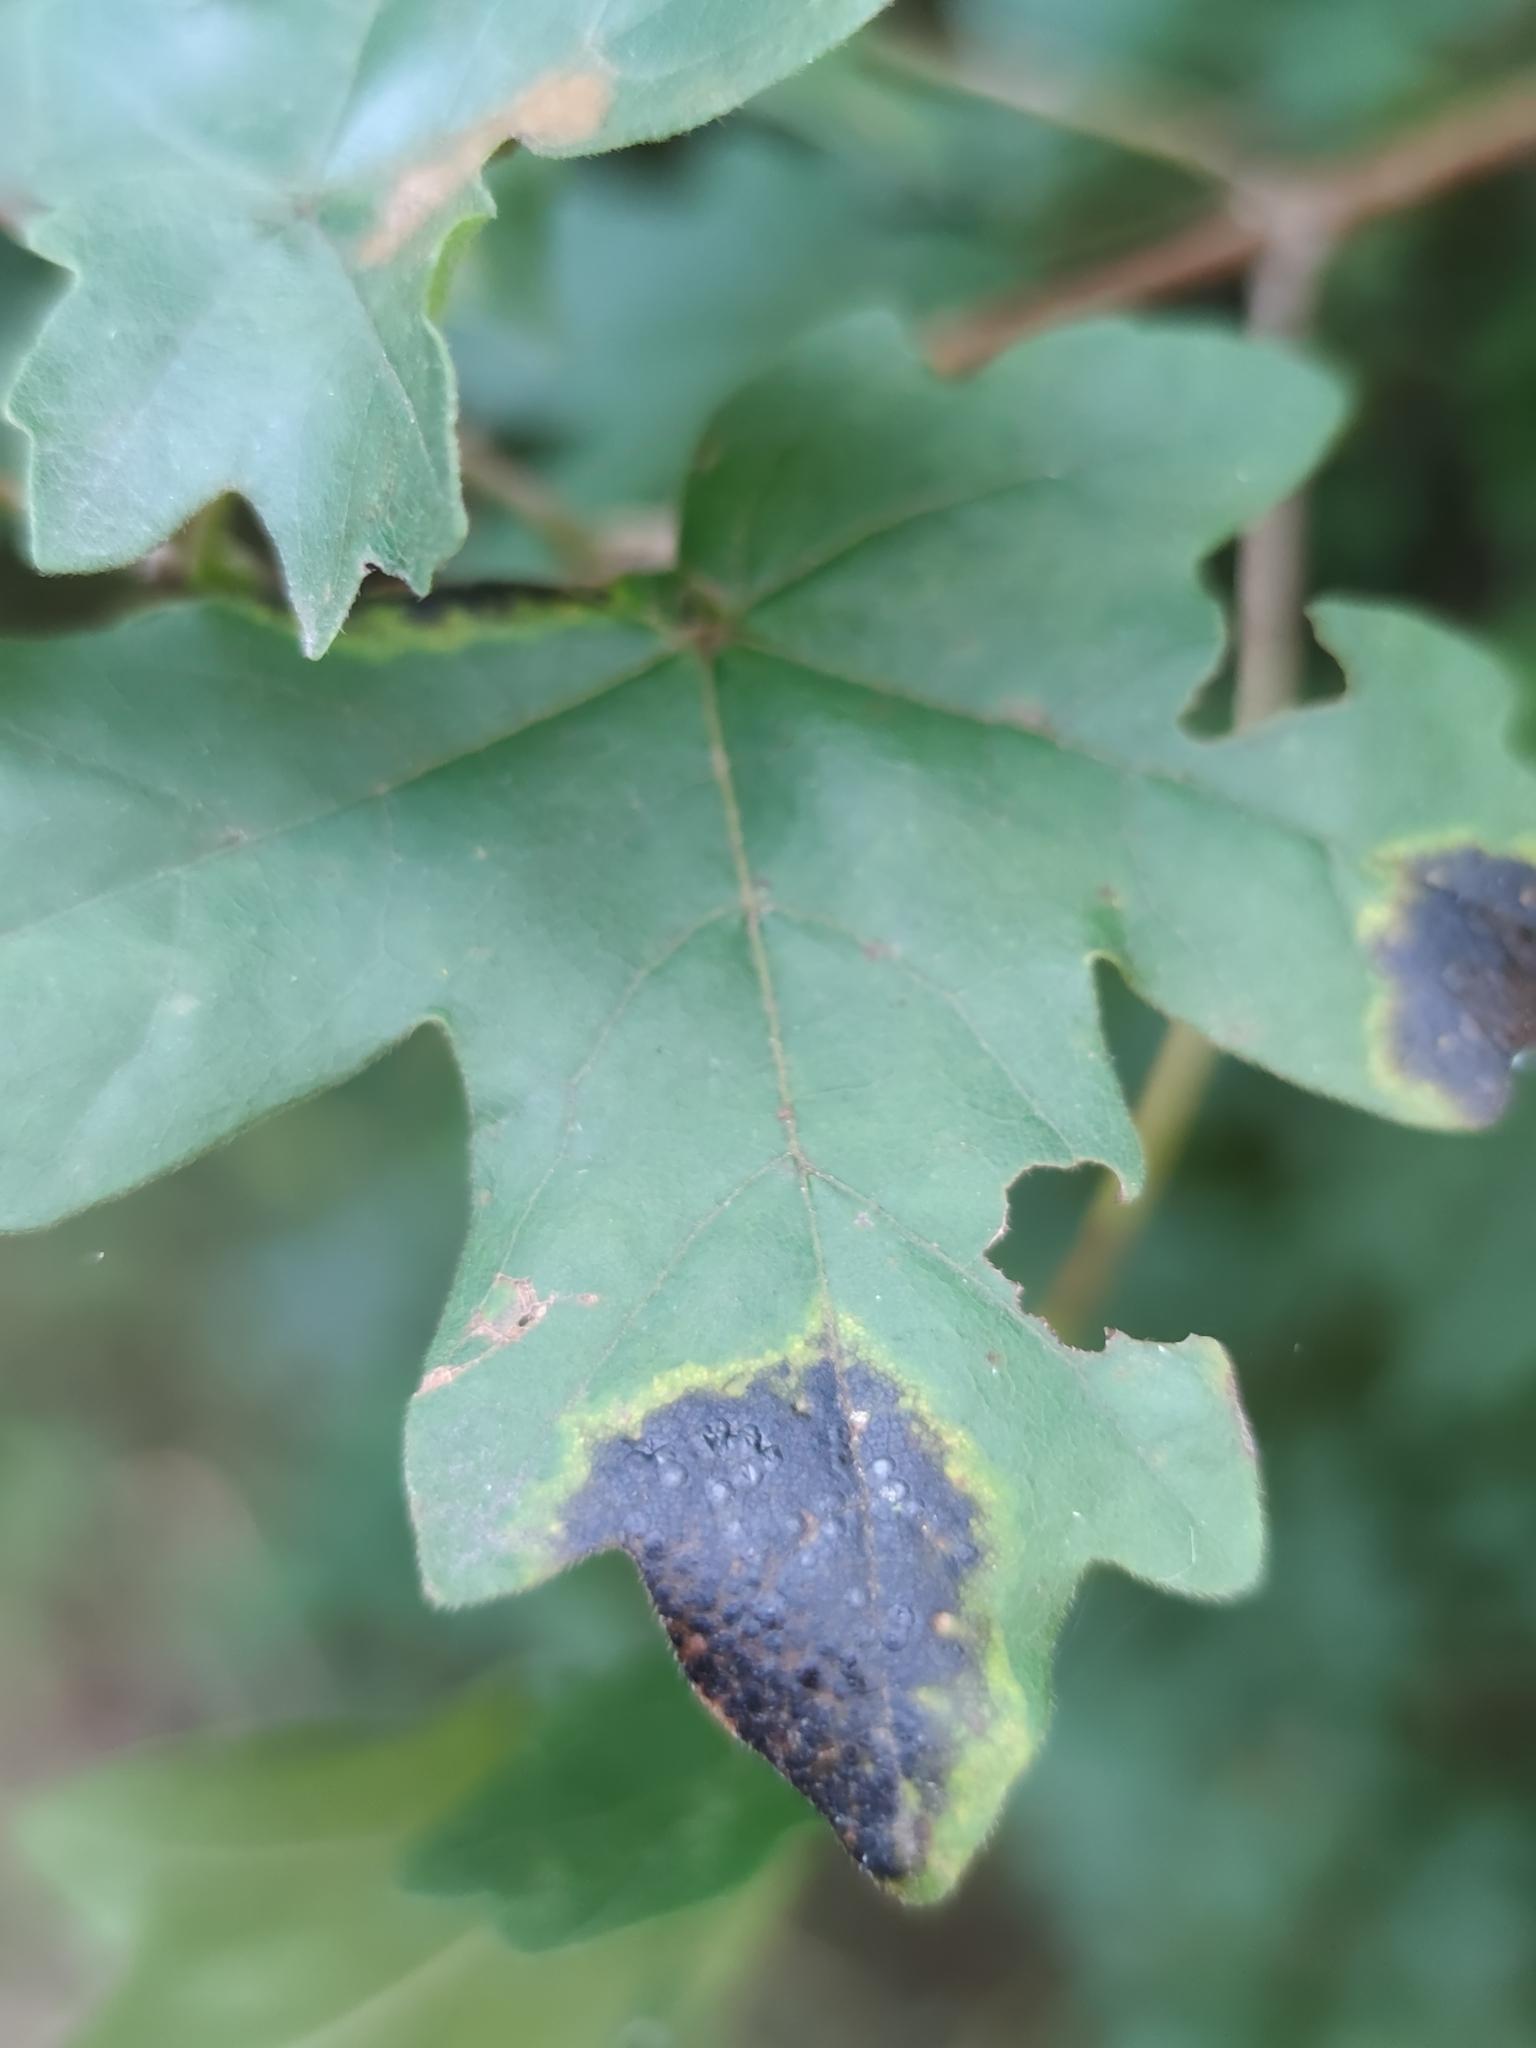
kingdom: Fungi
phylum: Ascomycota
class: Leotiomycetes
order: Rhytismatales
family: Rhytismataceae
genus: Rhytisma
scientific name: Rhytisma acerinum
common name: European tar spot
